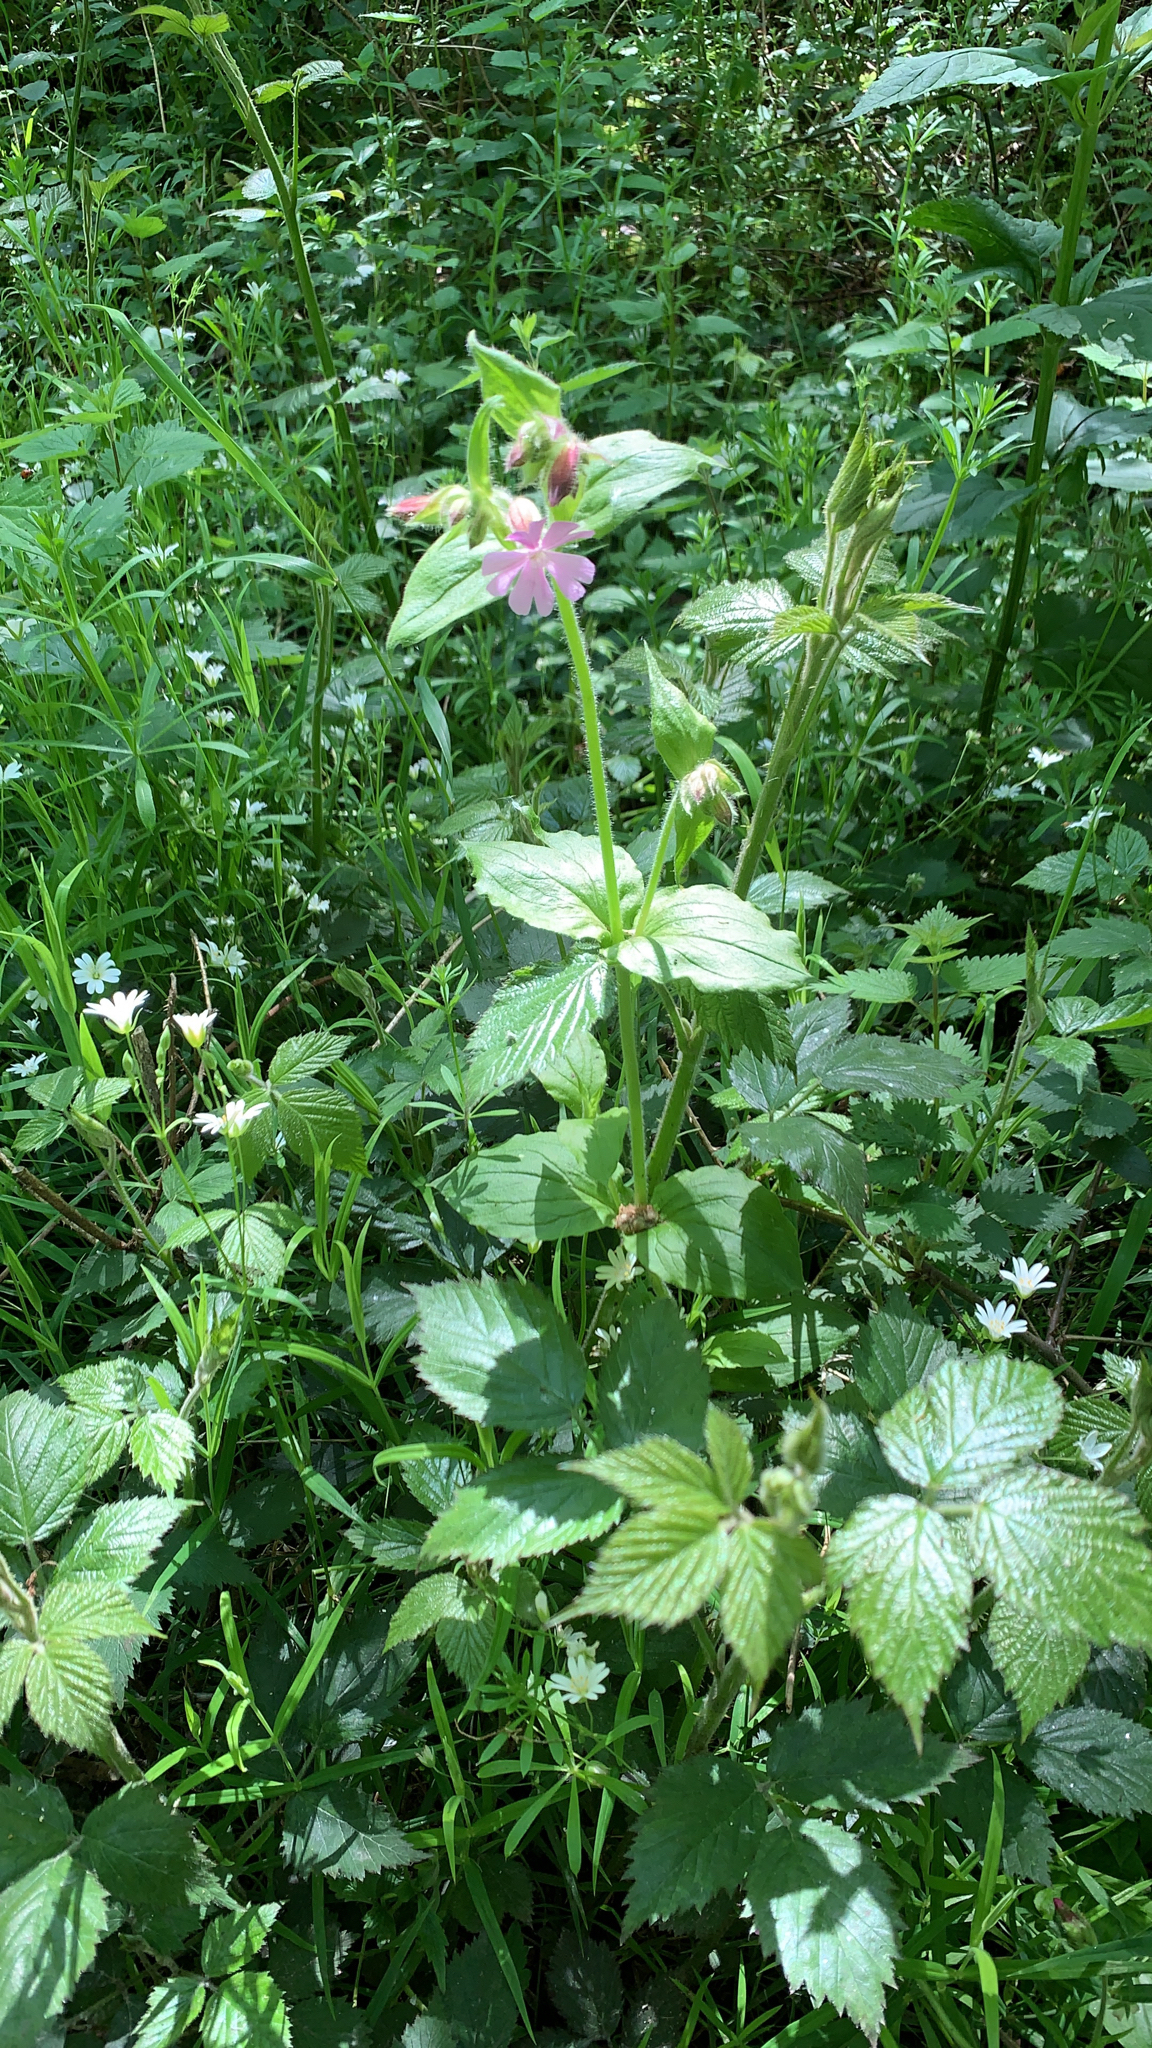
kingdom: Plantae
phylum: Tracheophyta
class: Magnoliopsida
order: Caryophyllales
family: Caryophyllaceae
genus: Silene
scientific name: Silene dioica
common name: Red campion
